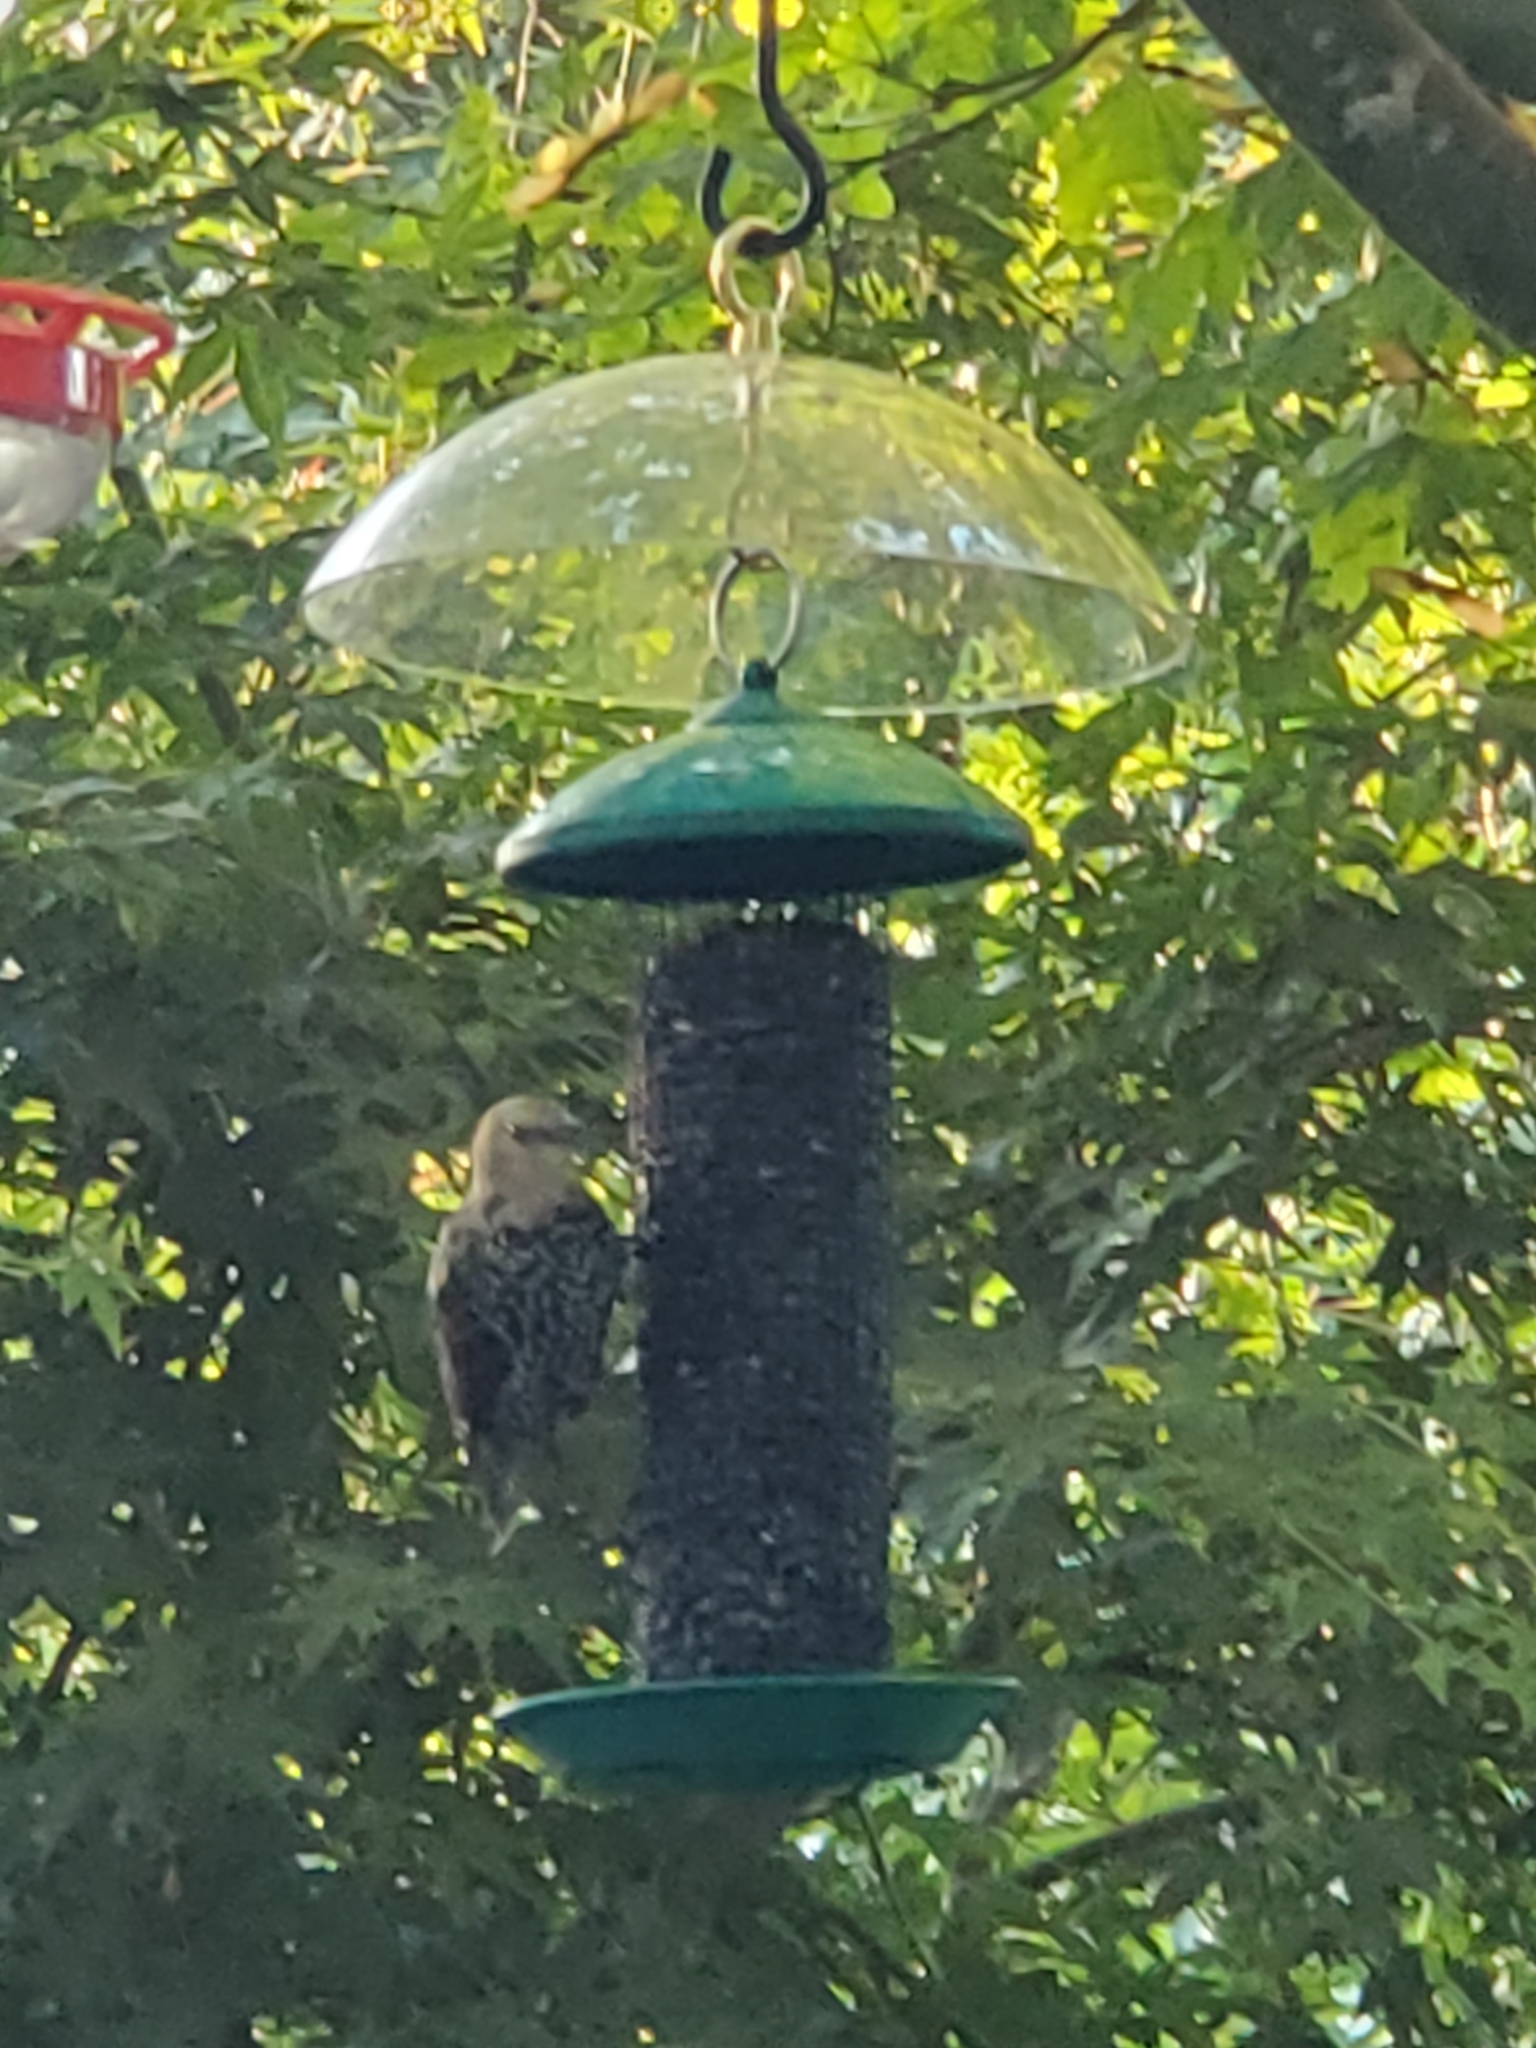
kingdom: Animalia
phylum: Chordata
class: Aves
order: Passeriformes
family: Sturnidae
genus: Sturnus
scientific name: Sturnus vulgaris
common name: Common starling
